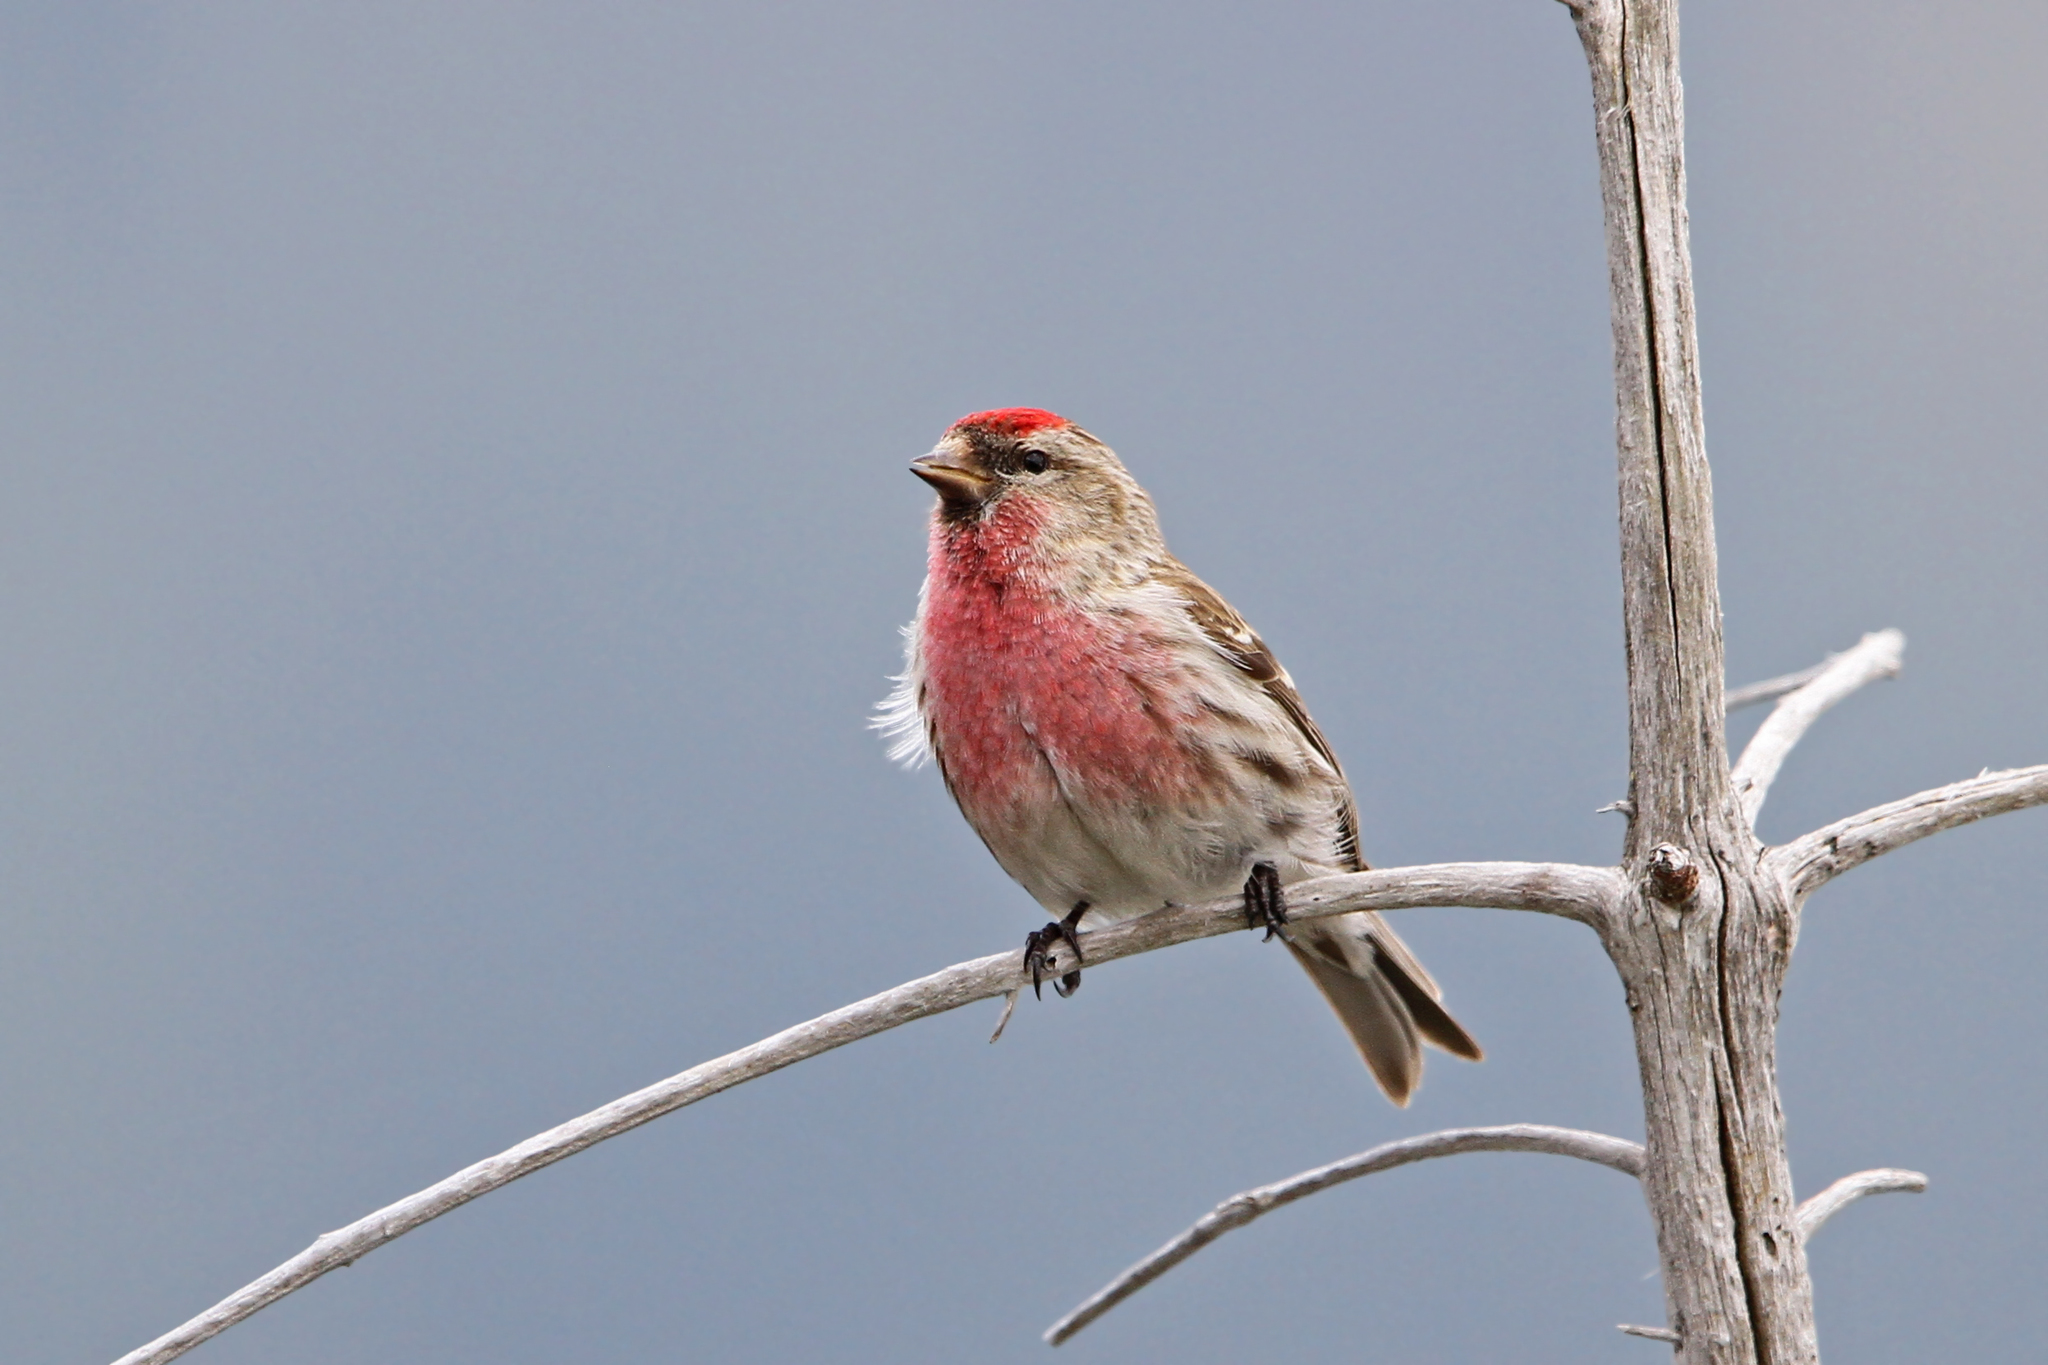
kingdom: Animalia
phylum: Chordata
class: Aves
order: Passeriformes
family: Fringillidae
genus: Acanthis
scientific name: Acanthis flammea
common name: Common redpoll
